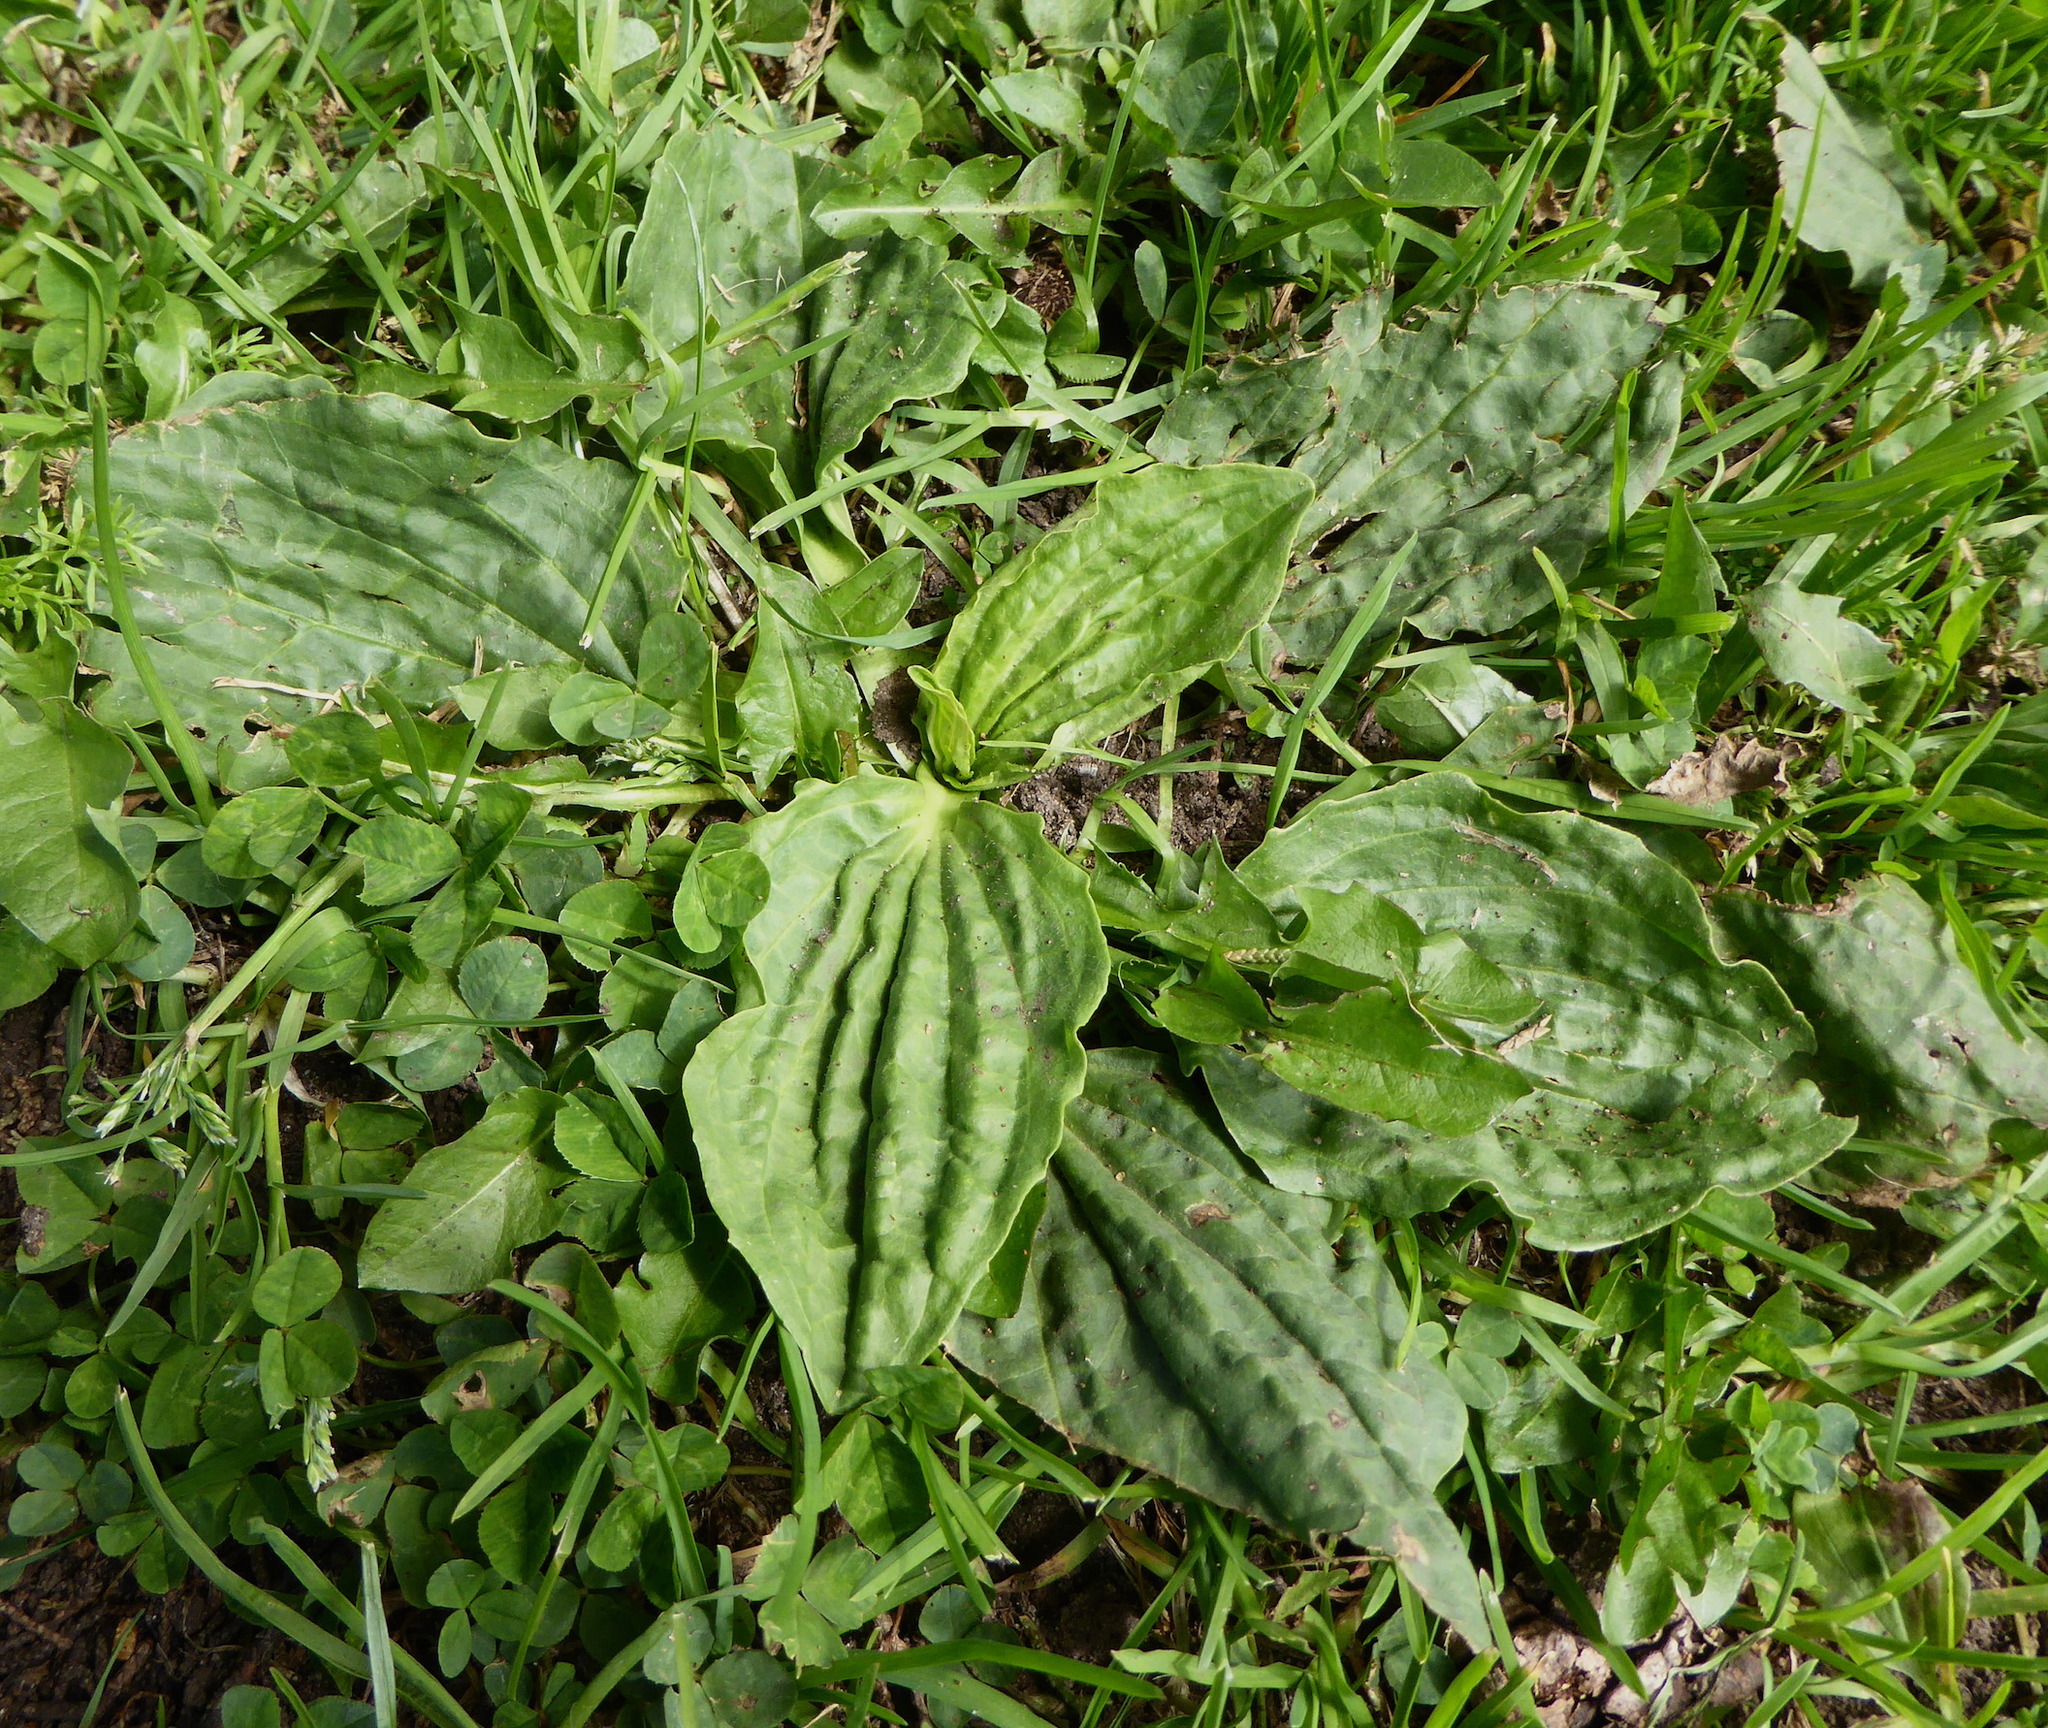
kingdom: Plantae
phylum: Tracheophyta
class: Magnoliopsida
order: Lamiales
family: Plantaginaceae
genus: Plantago
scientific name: Plantago major
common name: Common plantain
